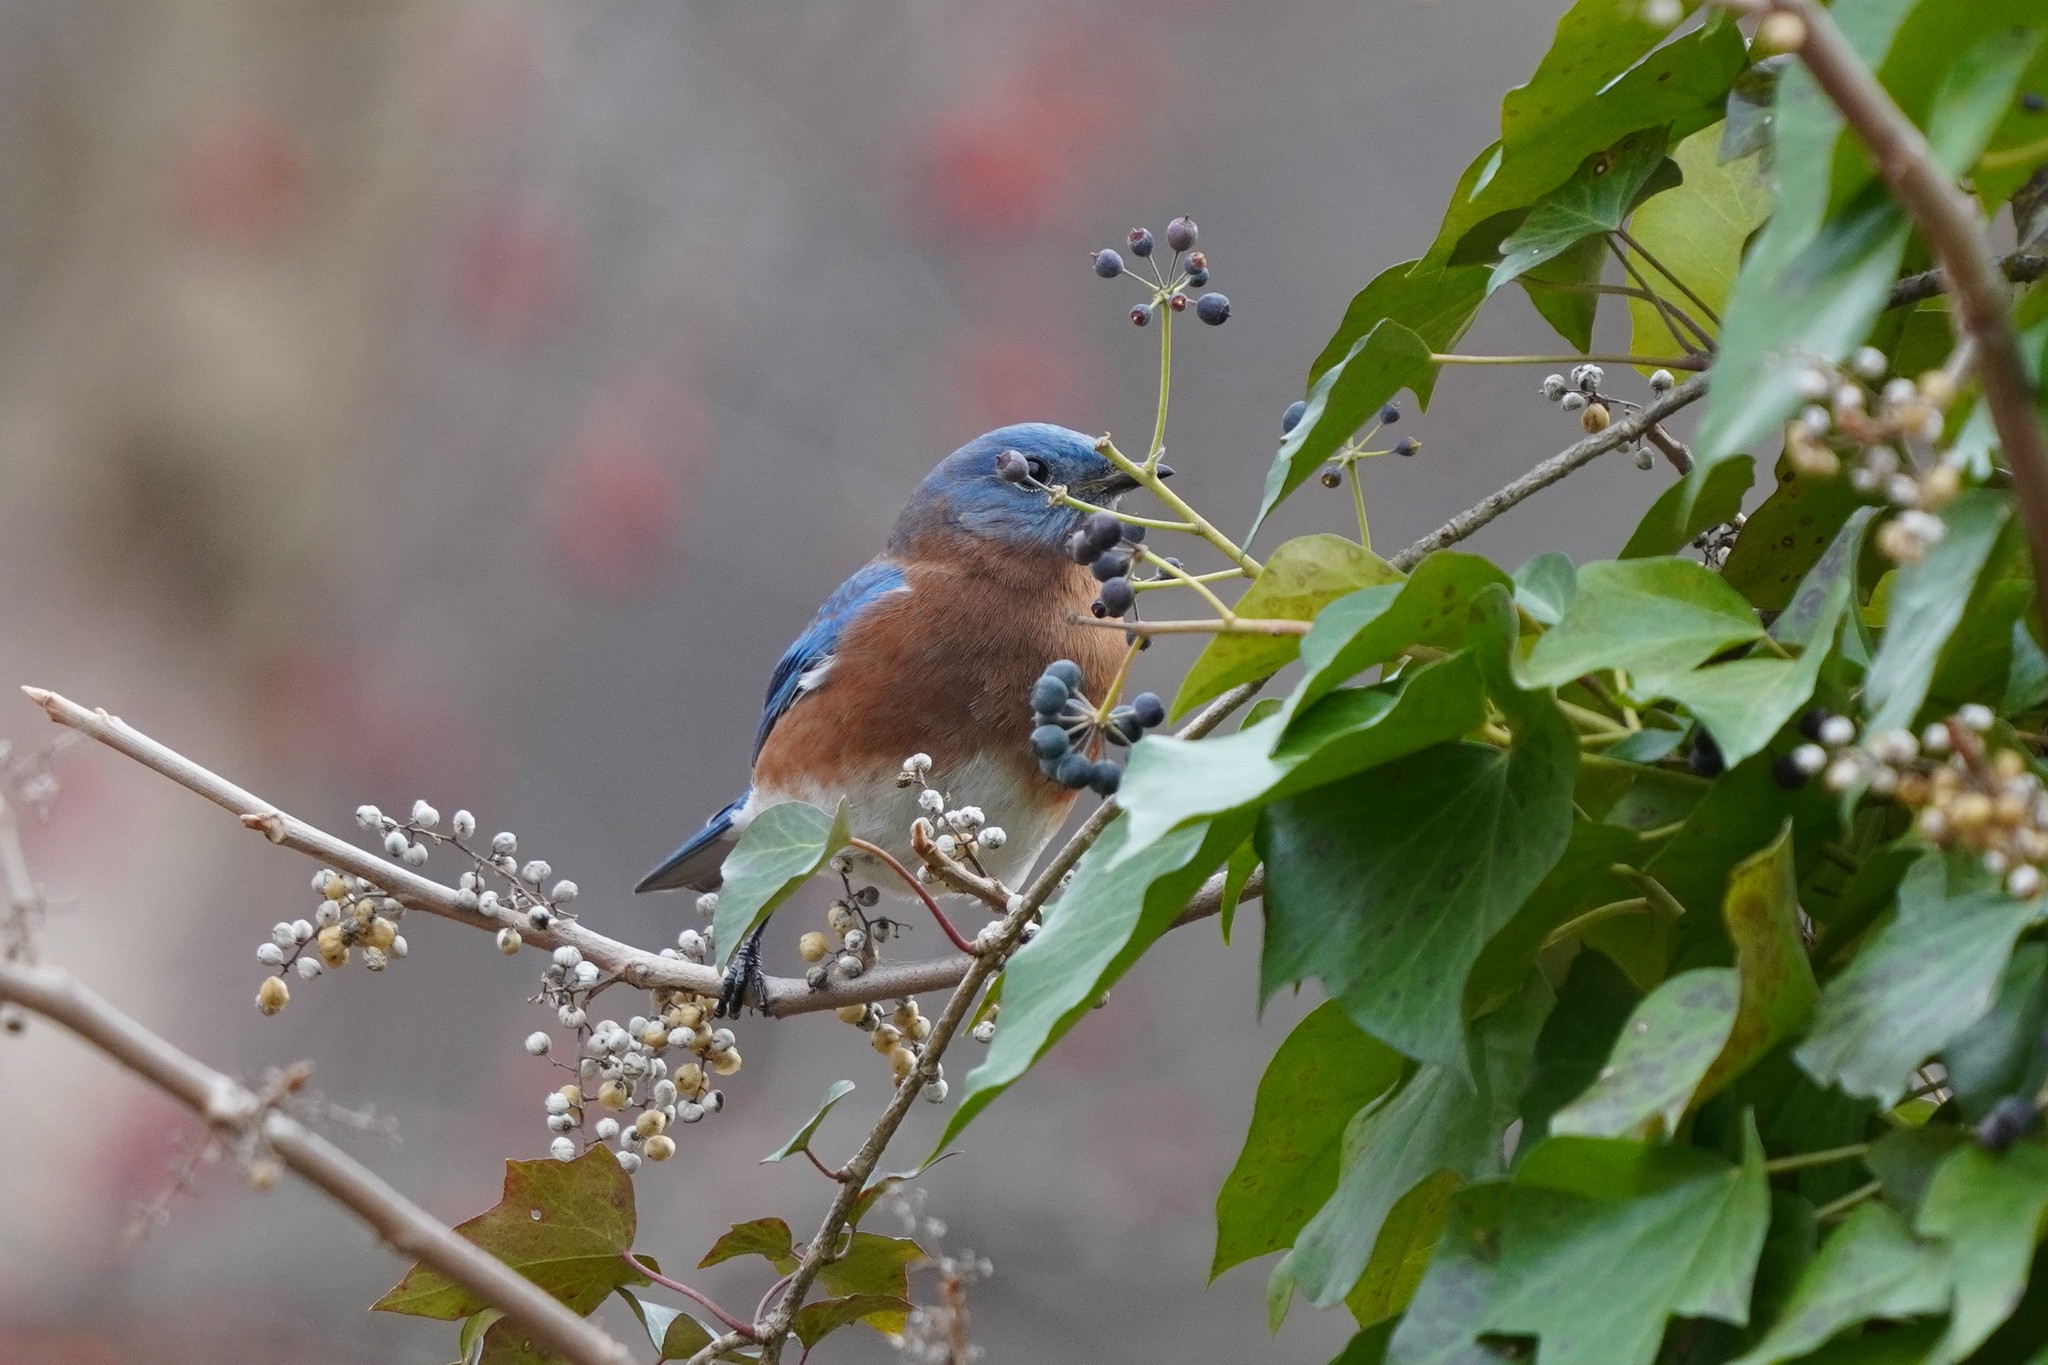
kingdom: Animalia
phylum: Chordata
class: Aves
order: Passeriformes
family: Turdidae
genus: Sialia
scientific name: Sialia sialis
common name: Eastern bluebird
